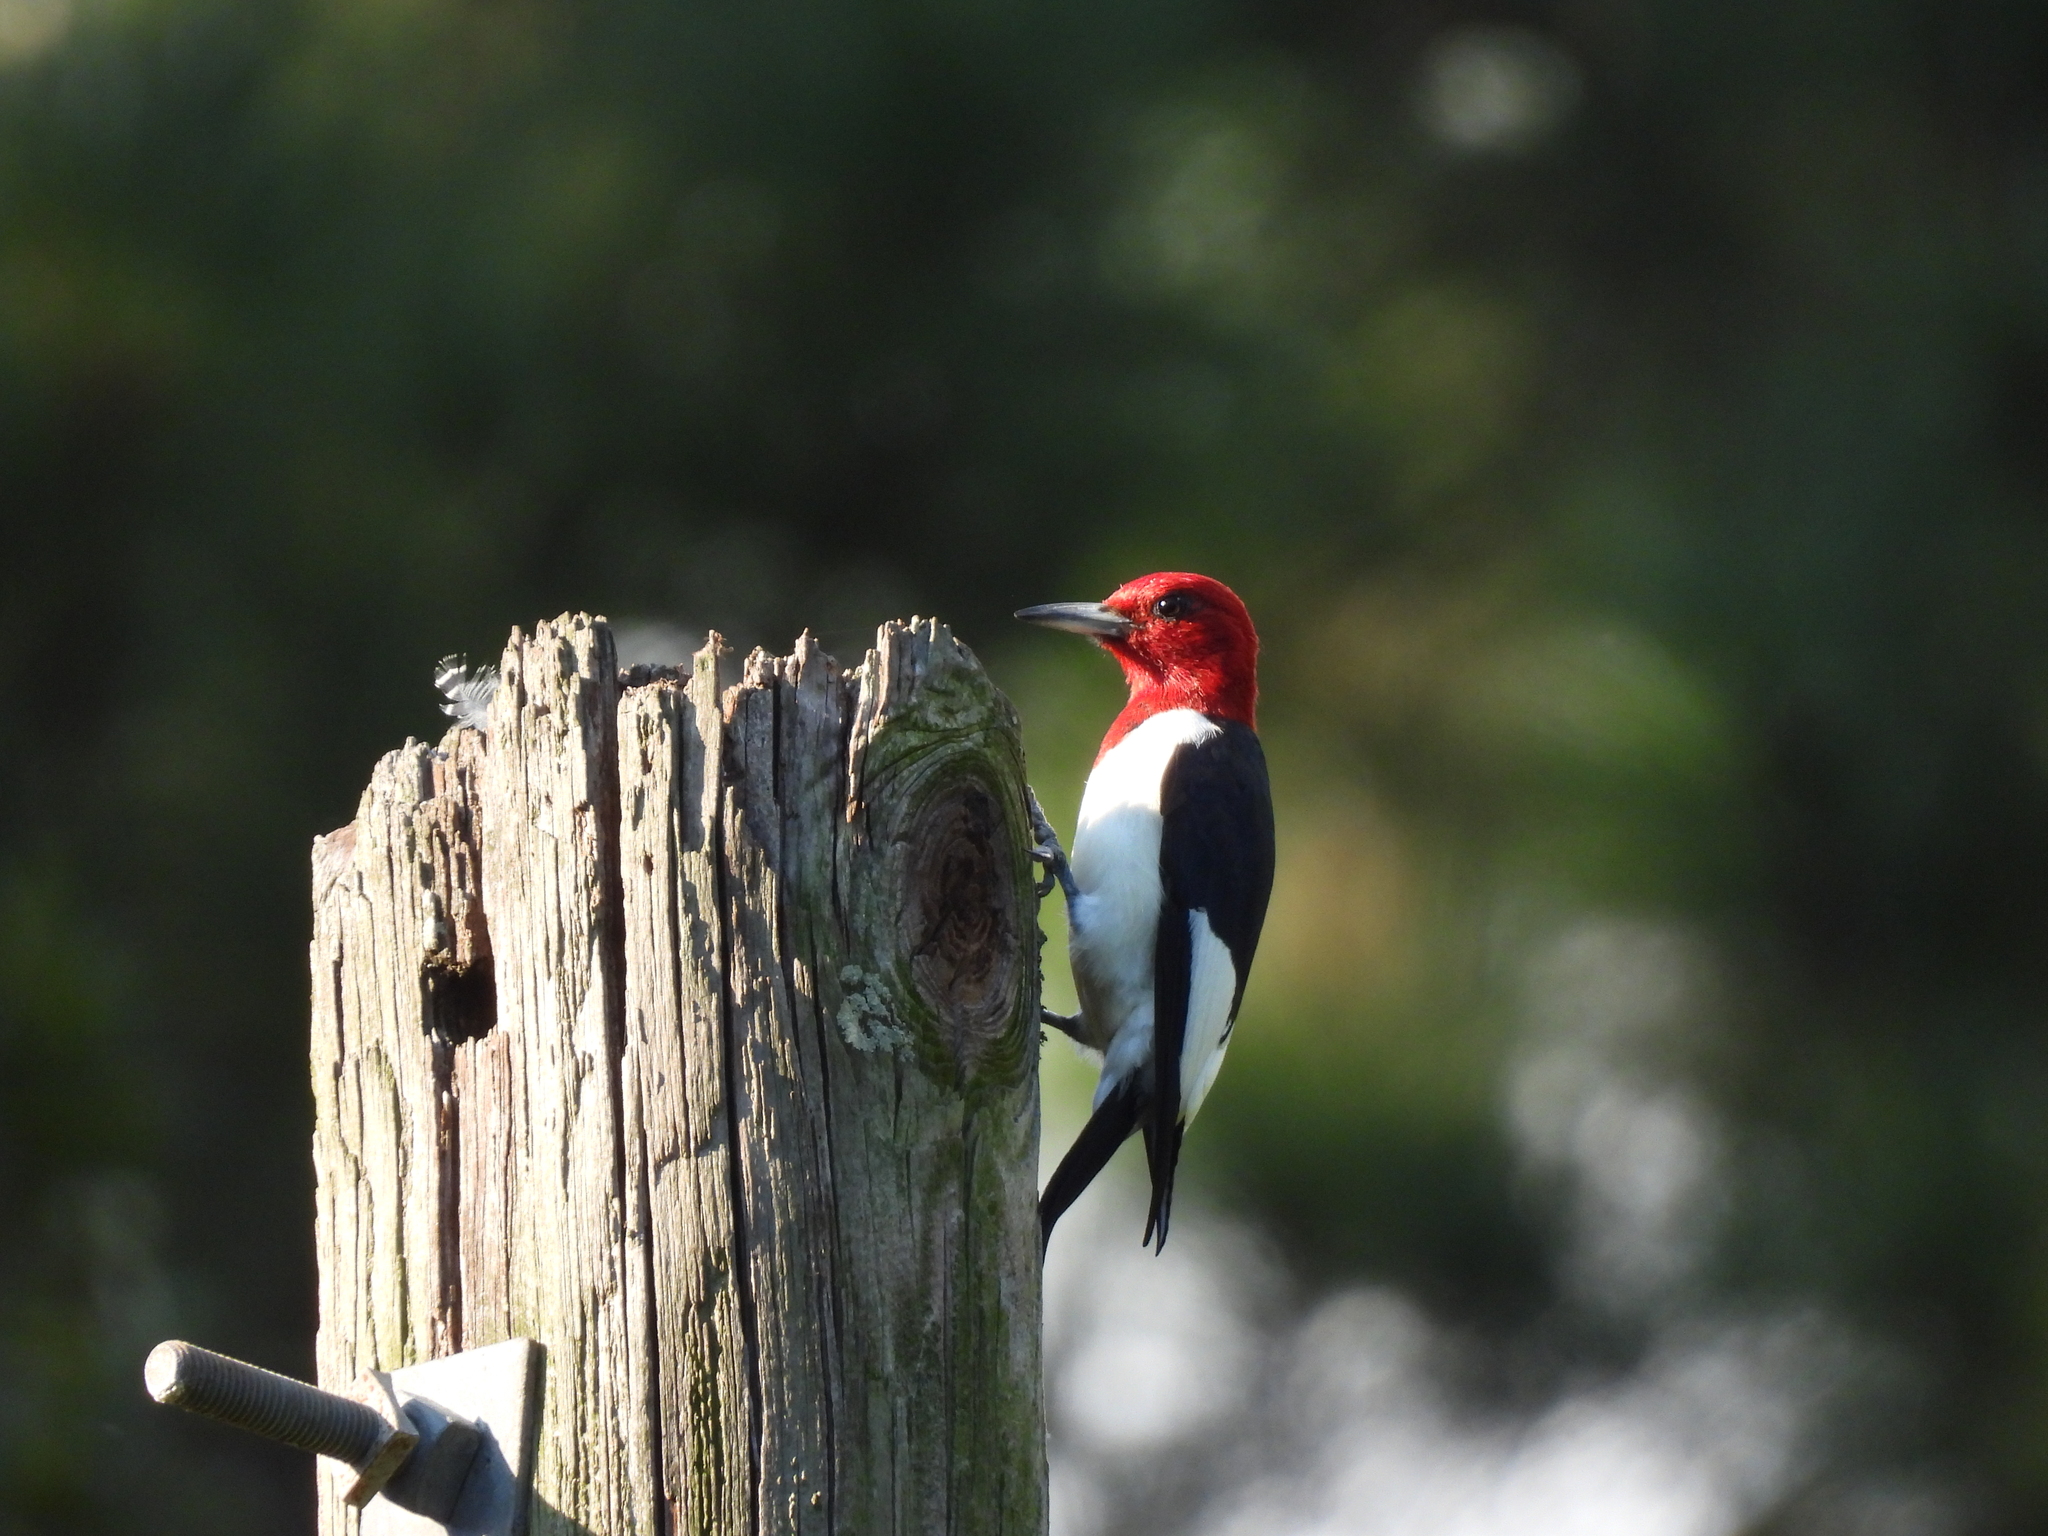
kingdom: Animalia
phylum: Chordata
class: Aves
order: Piciformes
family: Picidae
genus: Melanerpes
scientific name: Melanerpes erythrocephalus
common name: Red-headed woodpecker
